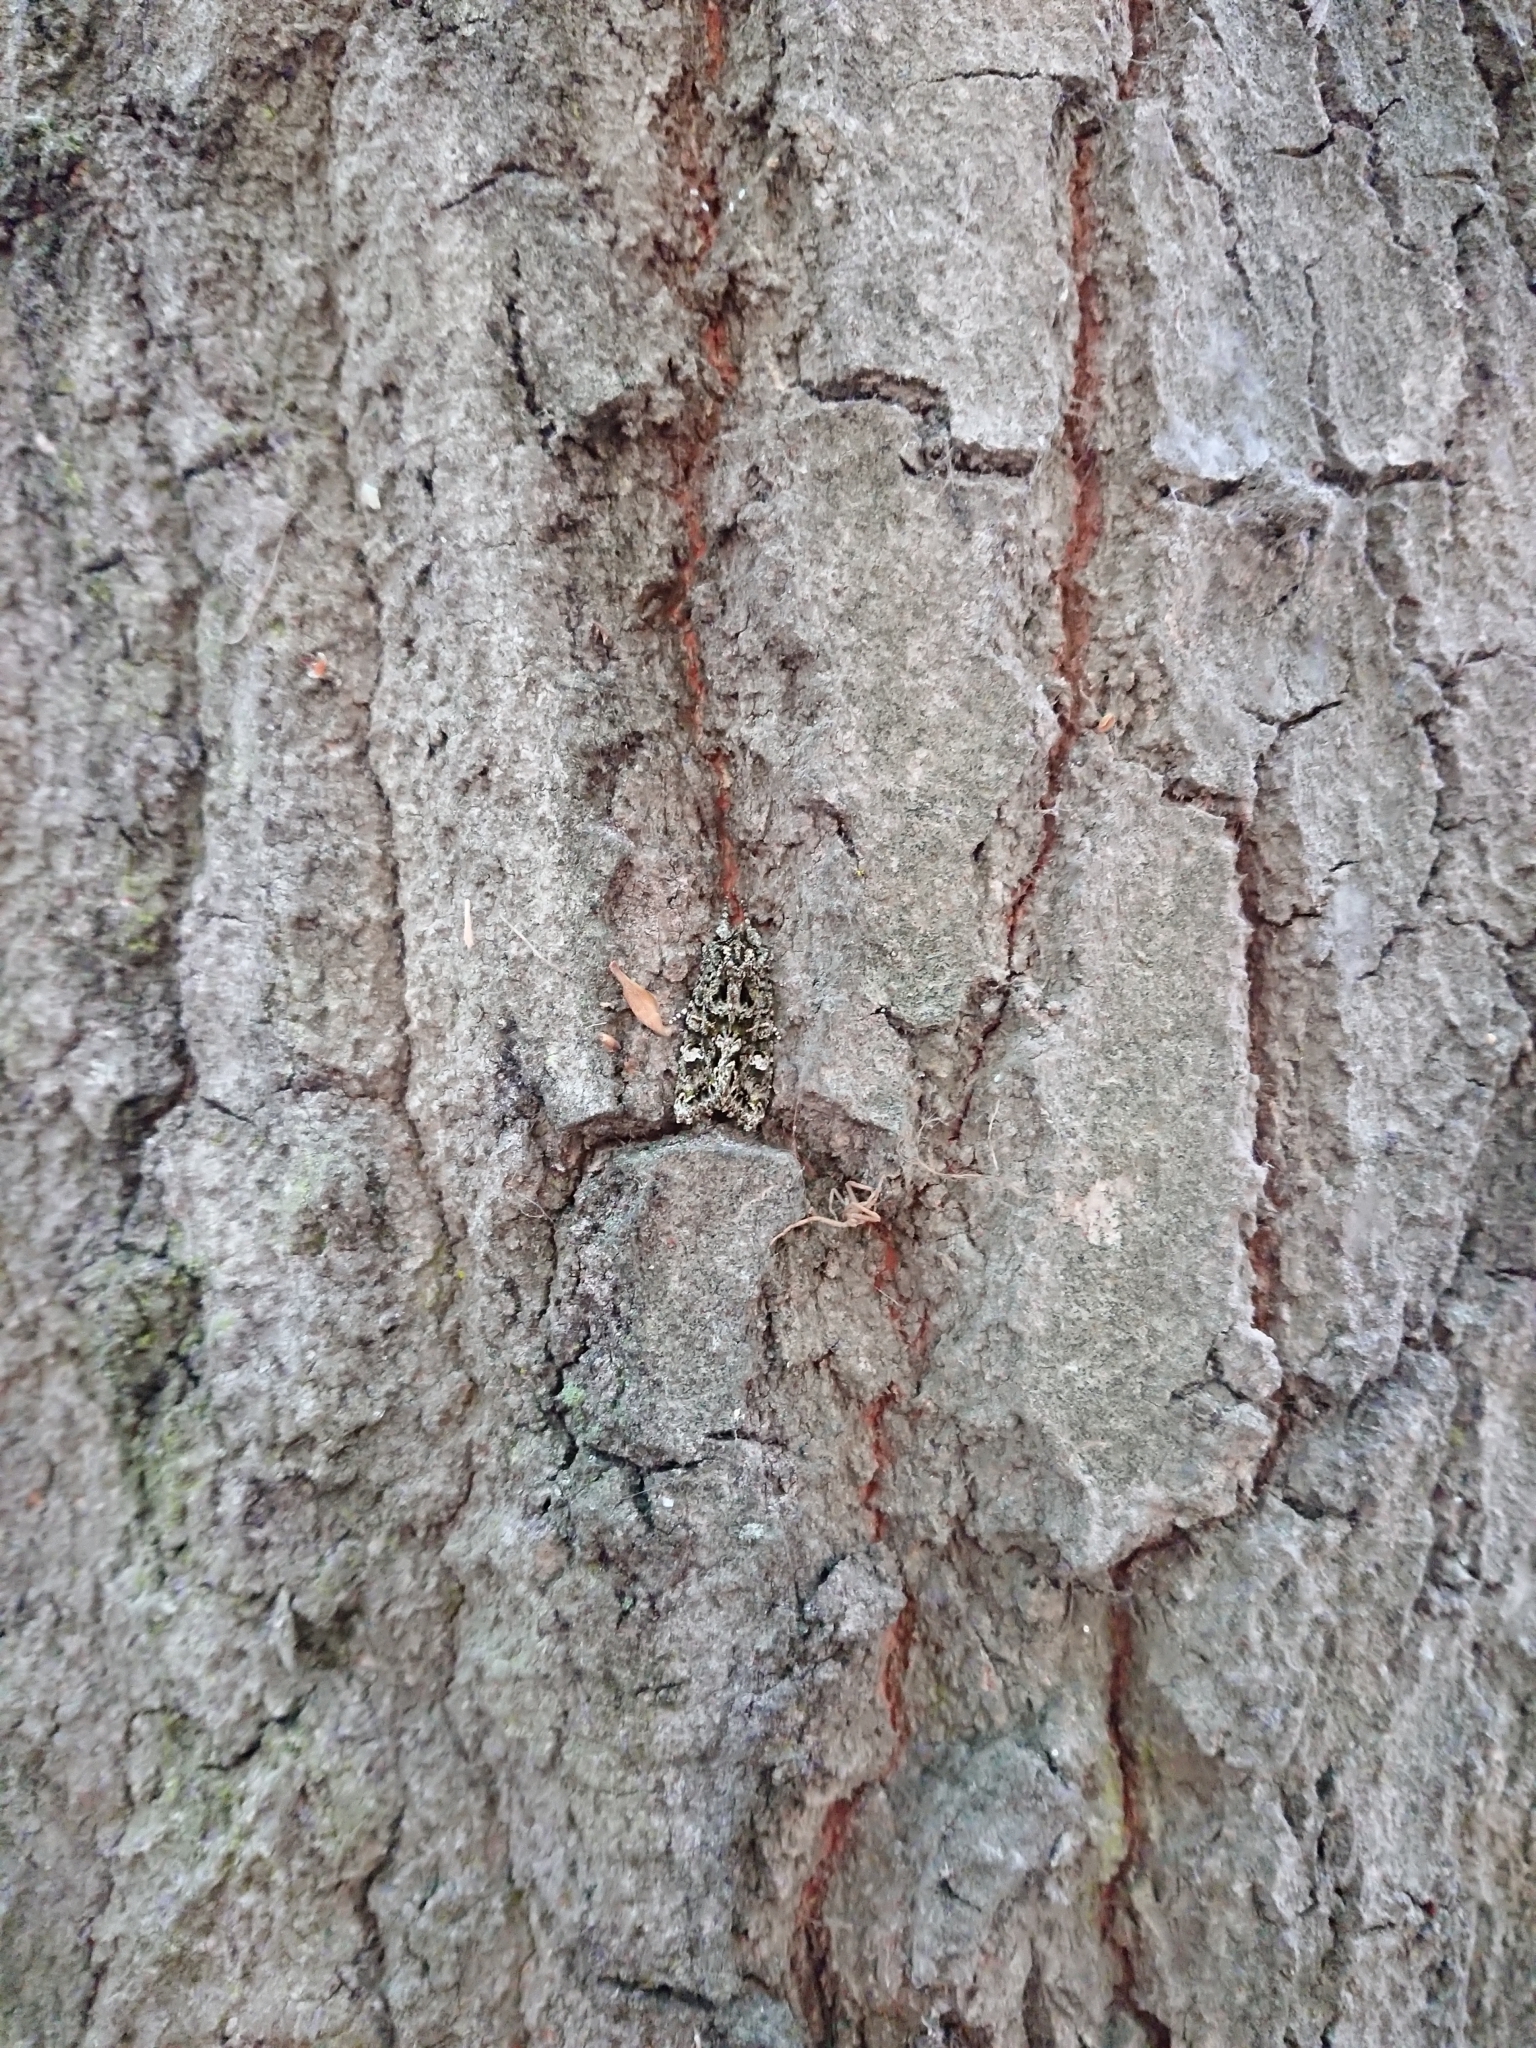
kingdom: Animalia
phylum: Arthropoda
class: Insecta
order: Lepidoptera
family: Noctuidae
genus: Ichneutica
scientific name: Ichneutica
